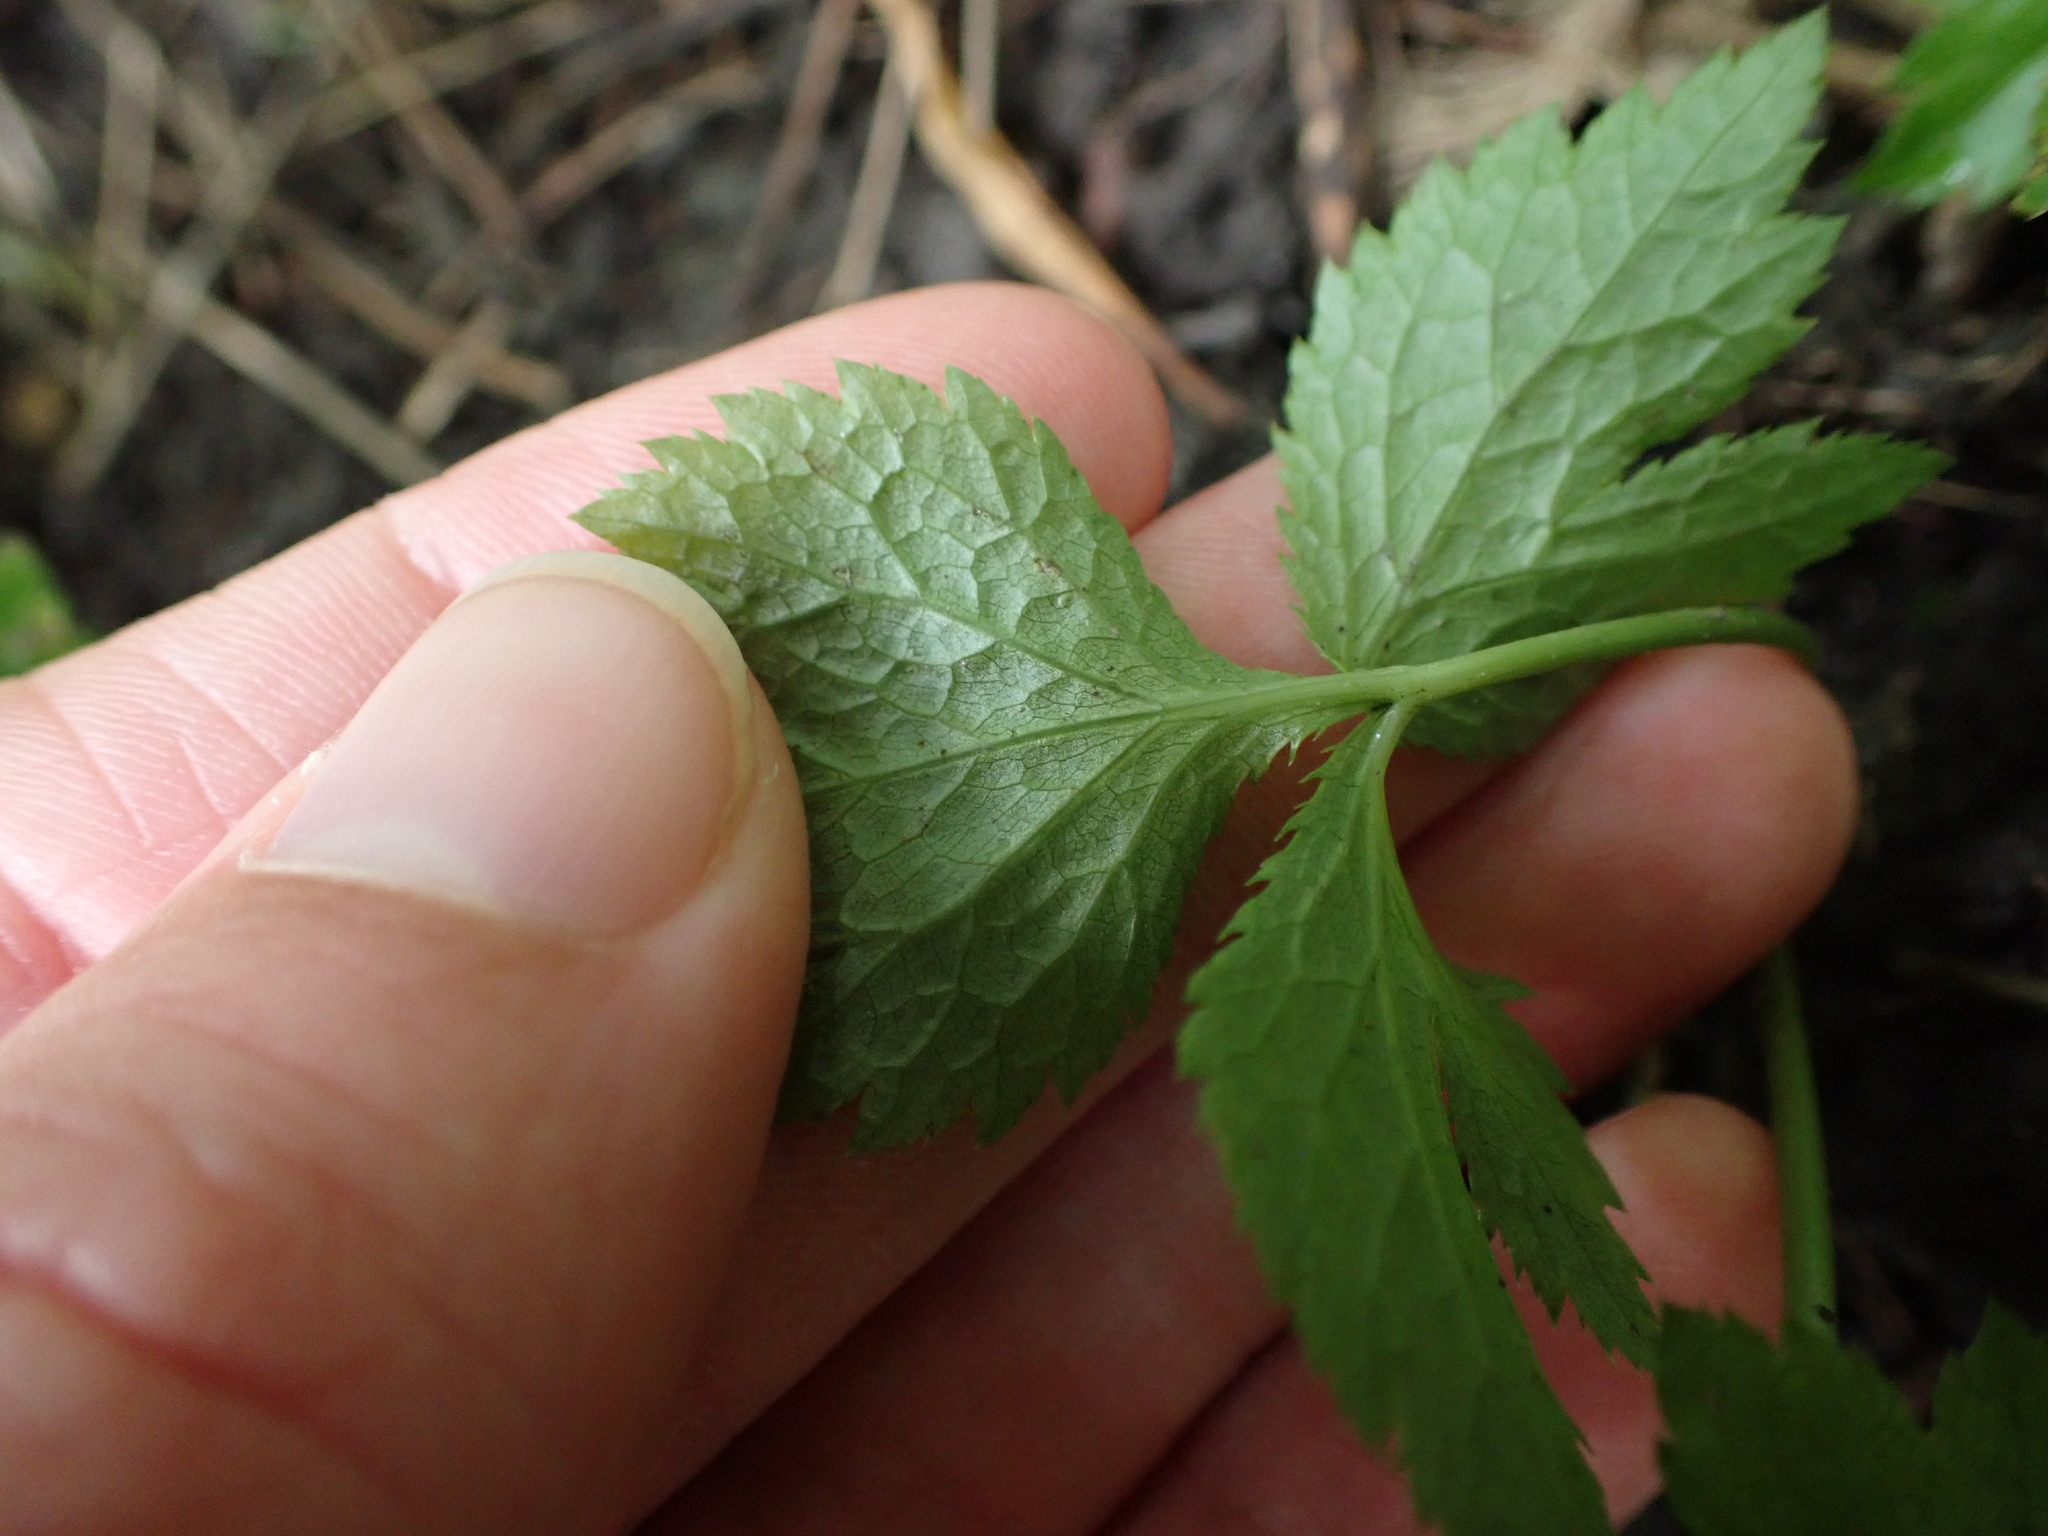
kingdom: Plantae
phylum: Tracheophyta
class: Magnoliopsida
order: Apiales
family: Apiaceae
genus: Cryptotaenia
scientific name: Cryptotaenia canadensis
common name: Honewort
